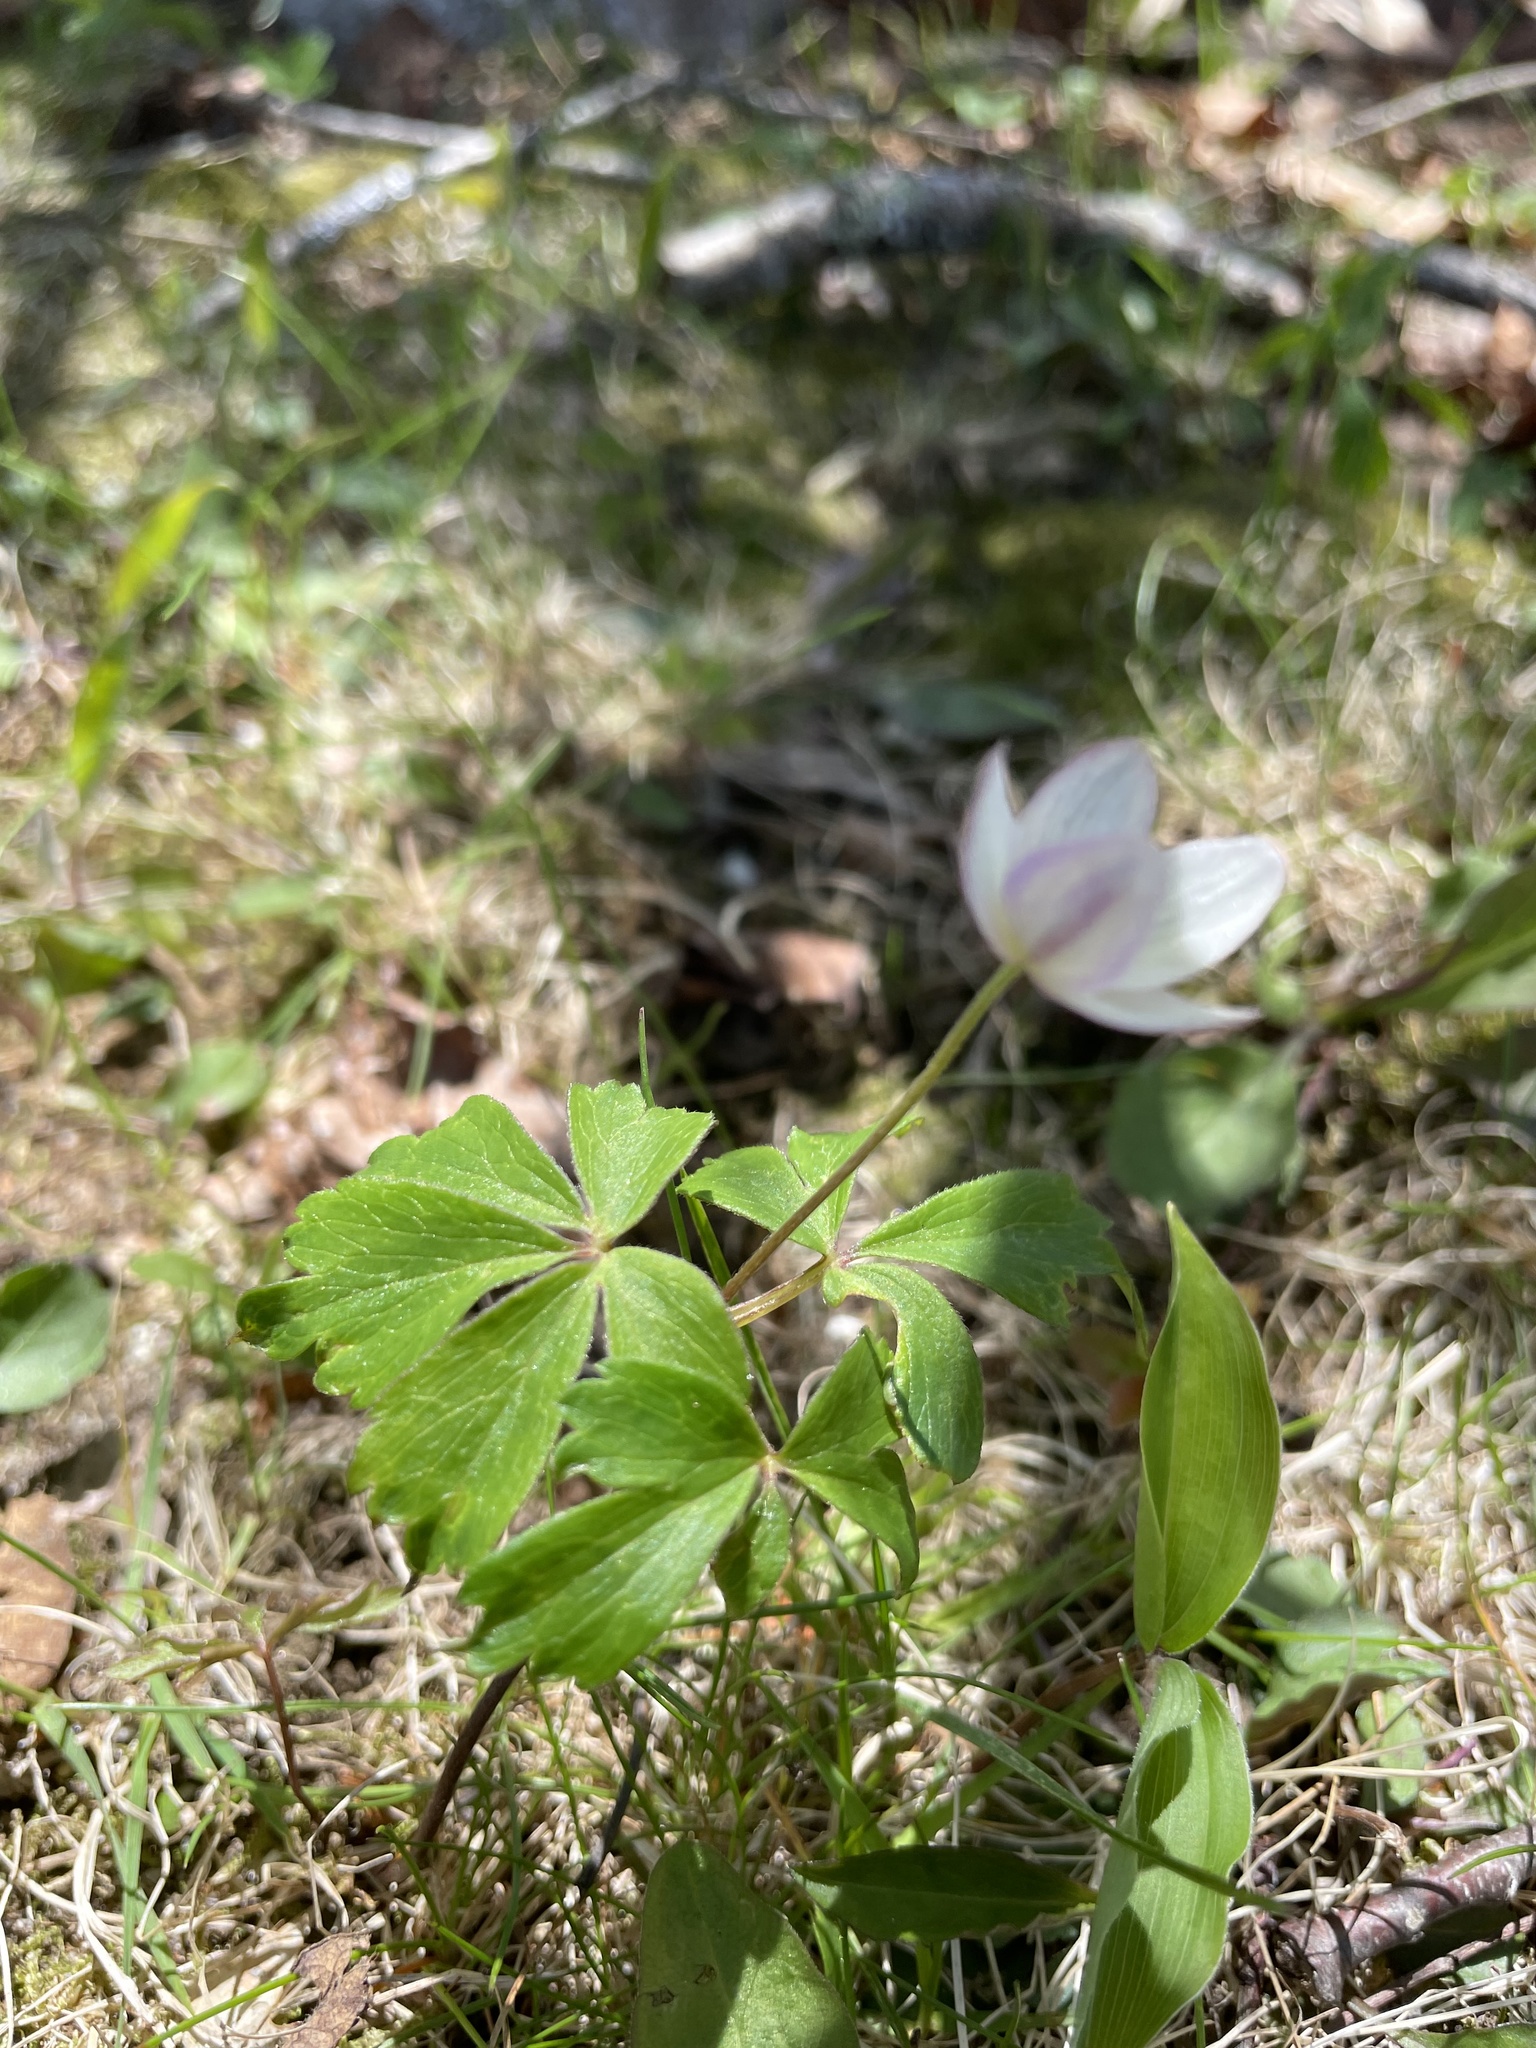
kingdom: Plantae
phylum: Tracheophyta
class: Magnoliopsida
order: Ranunculales
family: Ranunculaceae
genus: Anemone
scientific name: Anemone quinquefolia
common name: Wood anemone
